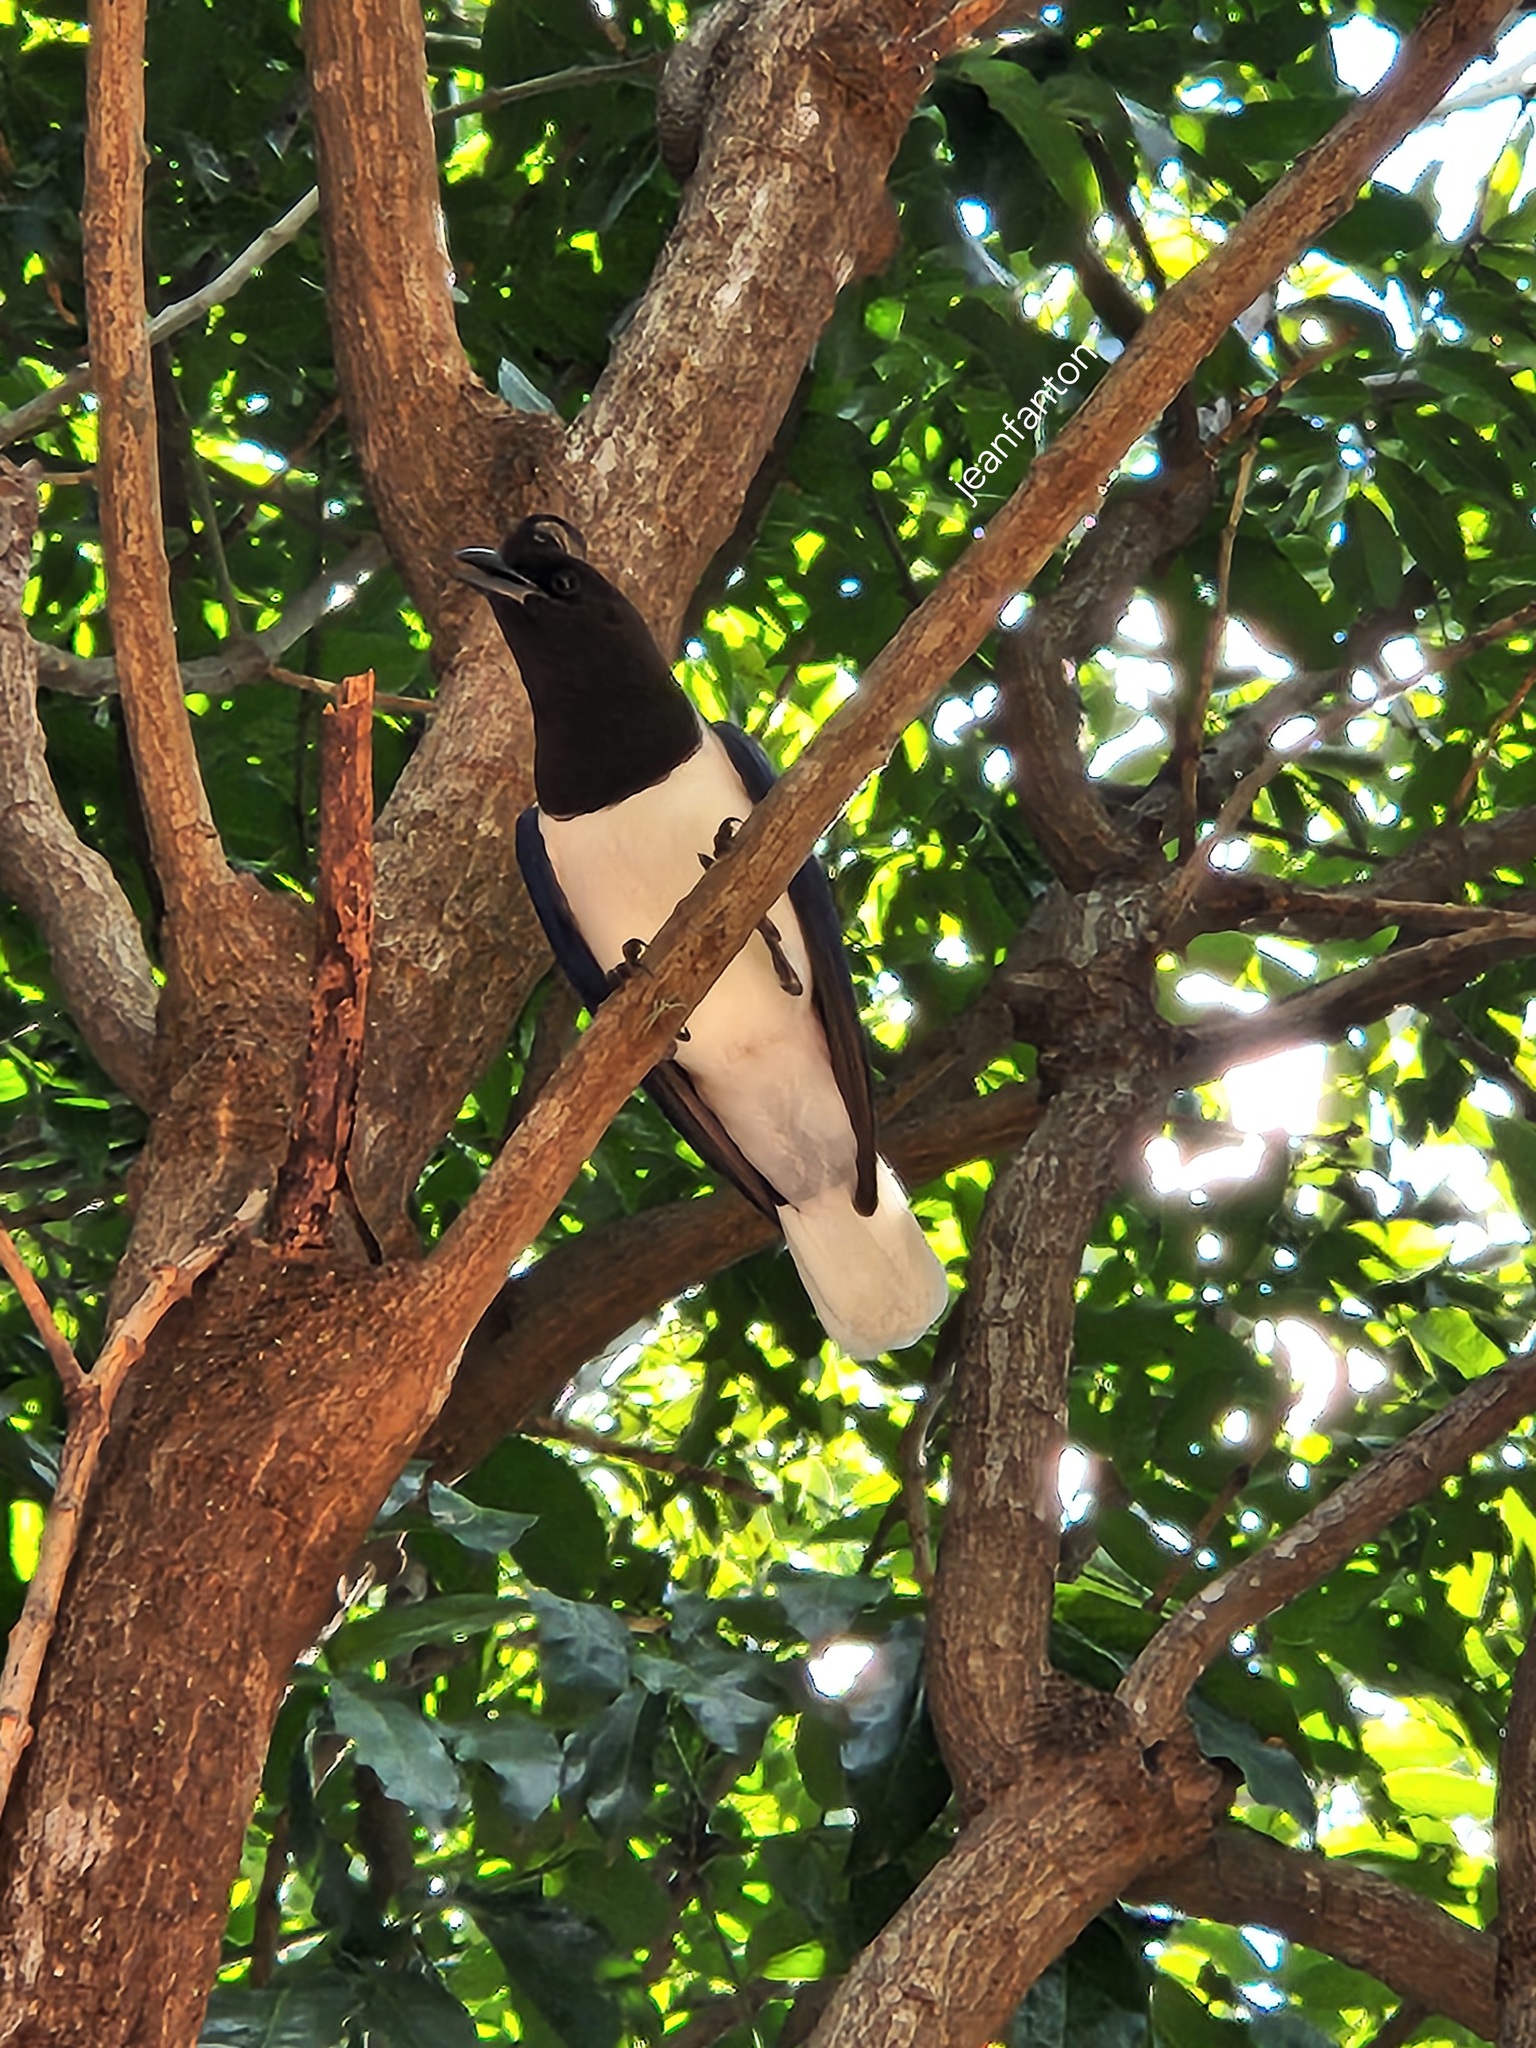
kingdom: Animalia
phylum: Chordata
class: Aves
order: Passeriformes
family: Corvidae
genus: Cyanocorax
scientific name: Cyanocorax cristatellus
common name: Curl-crested jay
